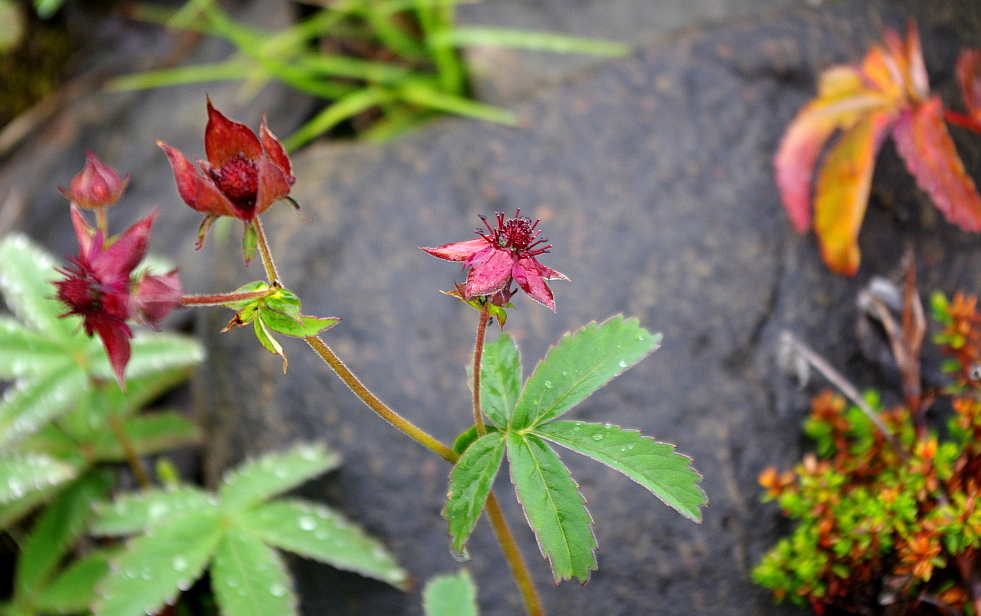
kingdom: Plantae
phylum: Tracheophyta
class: Magnoliopsida
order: Rosales
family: Rosaceae
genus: Comarum
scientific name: Comarum palustre
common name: Marsh cinquefoil
